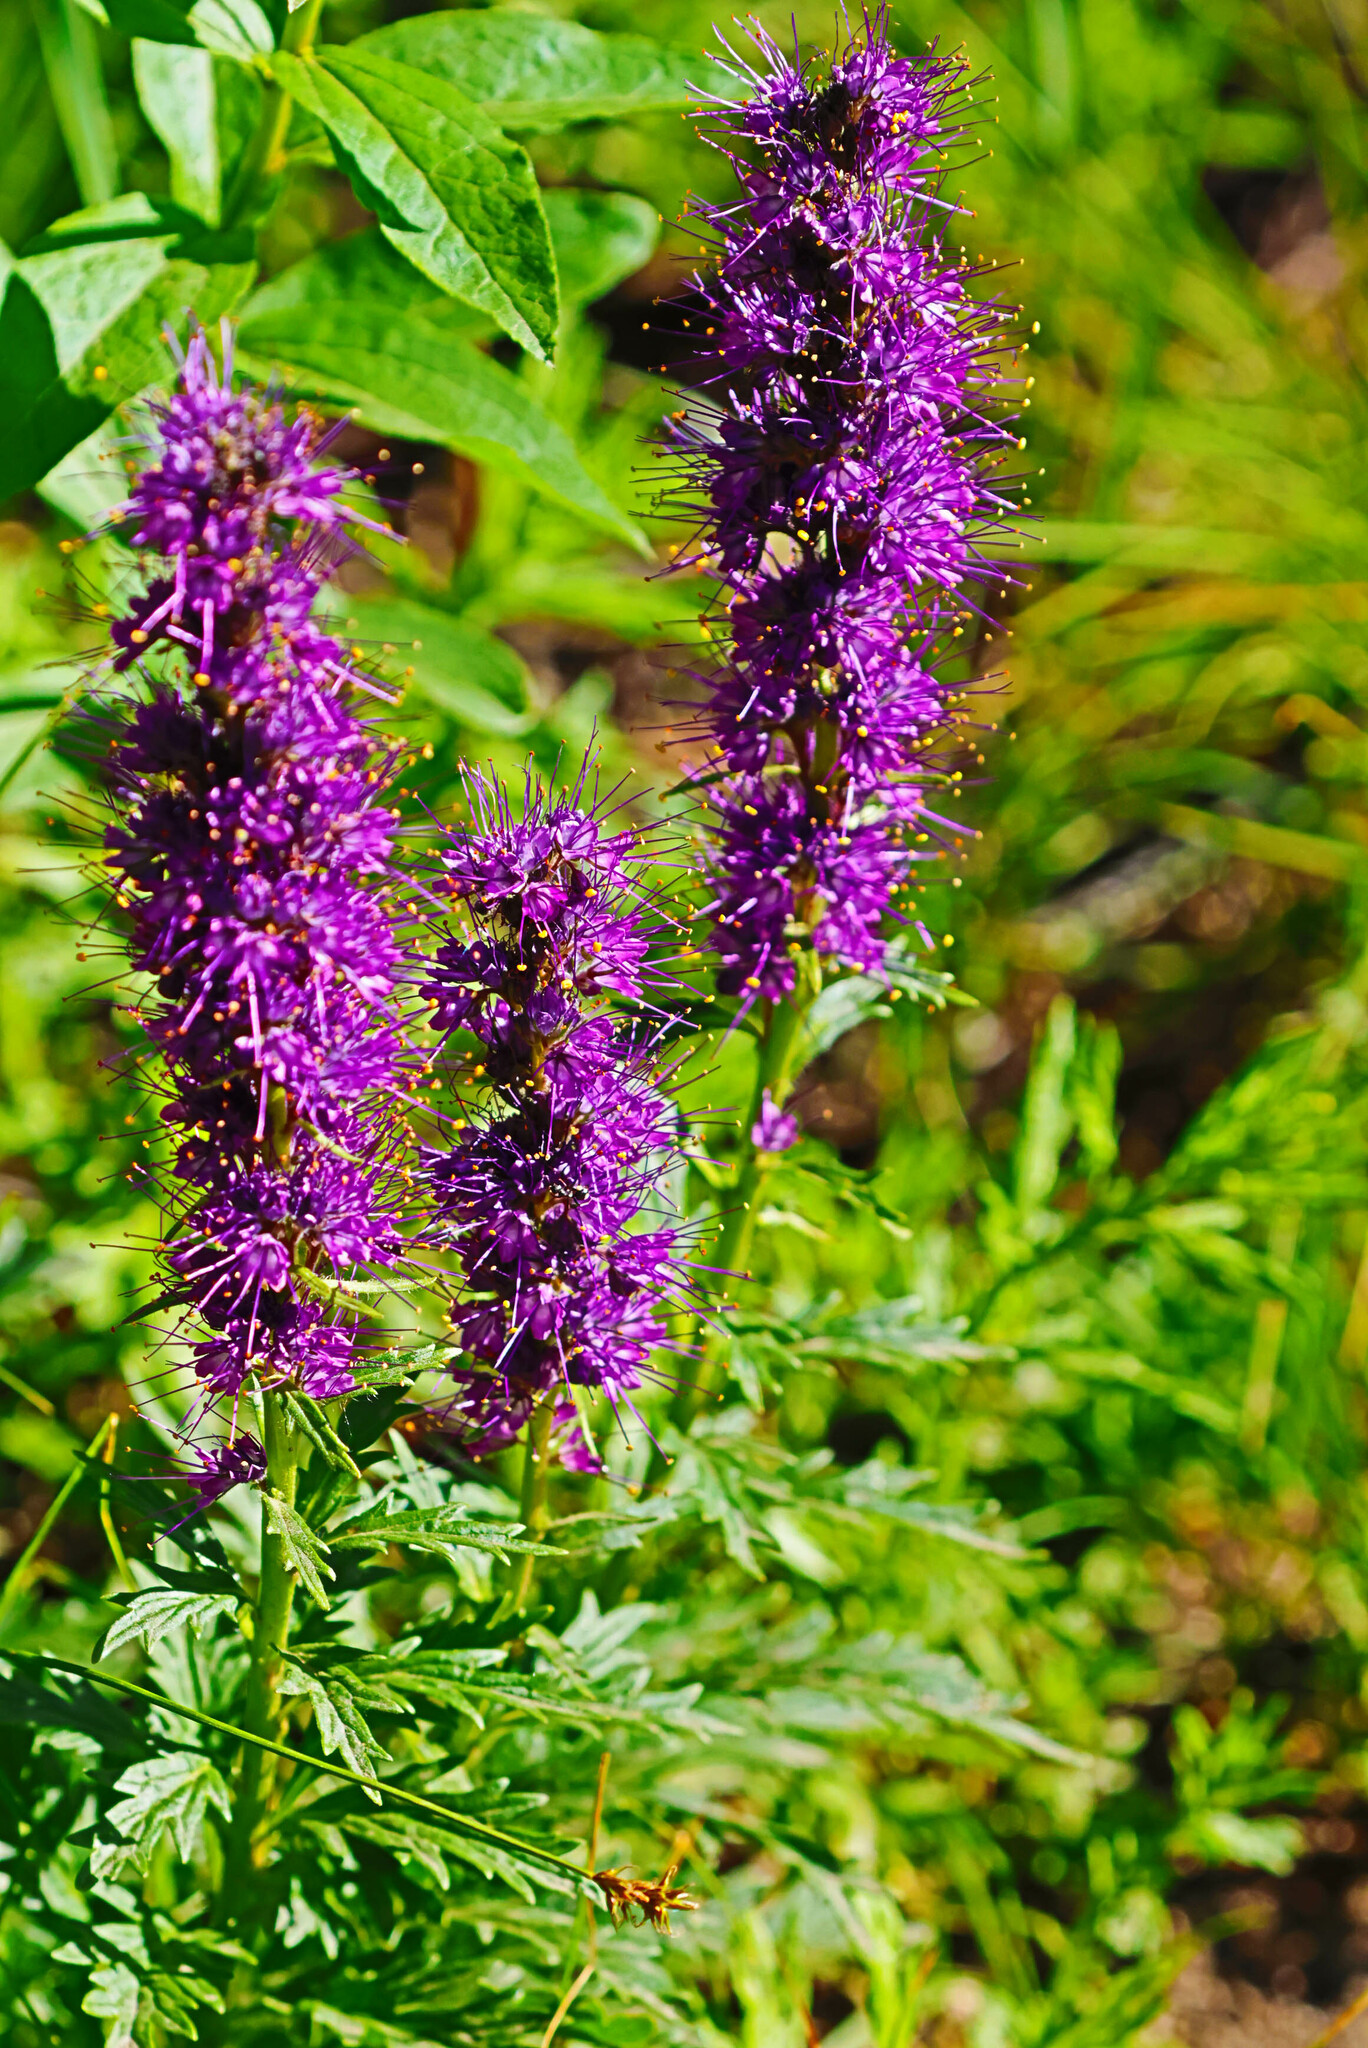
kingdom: Plantae
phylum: Tracheophyta
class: Magnoliopsida
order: Boraginales
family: Hydrophyllaceae
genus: Phacelia
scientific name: Phacelia sericea
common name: Silky phacelia
